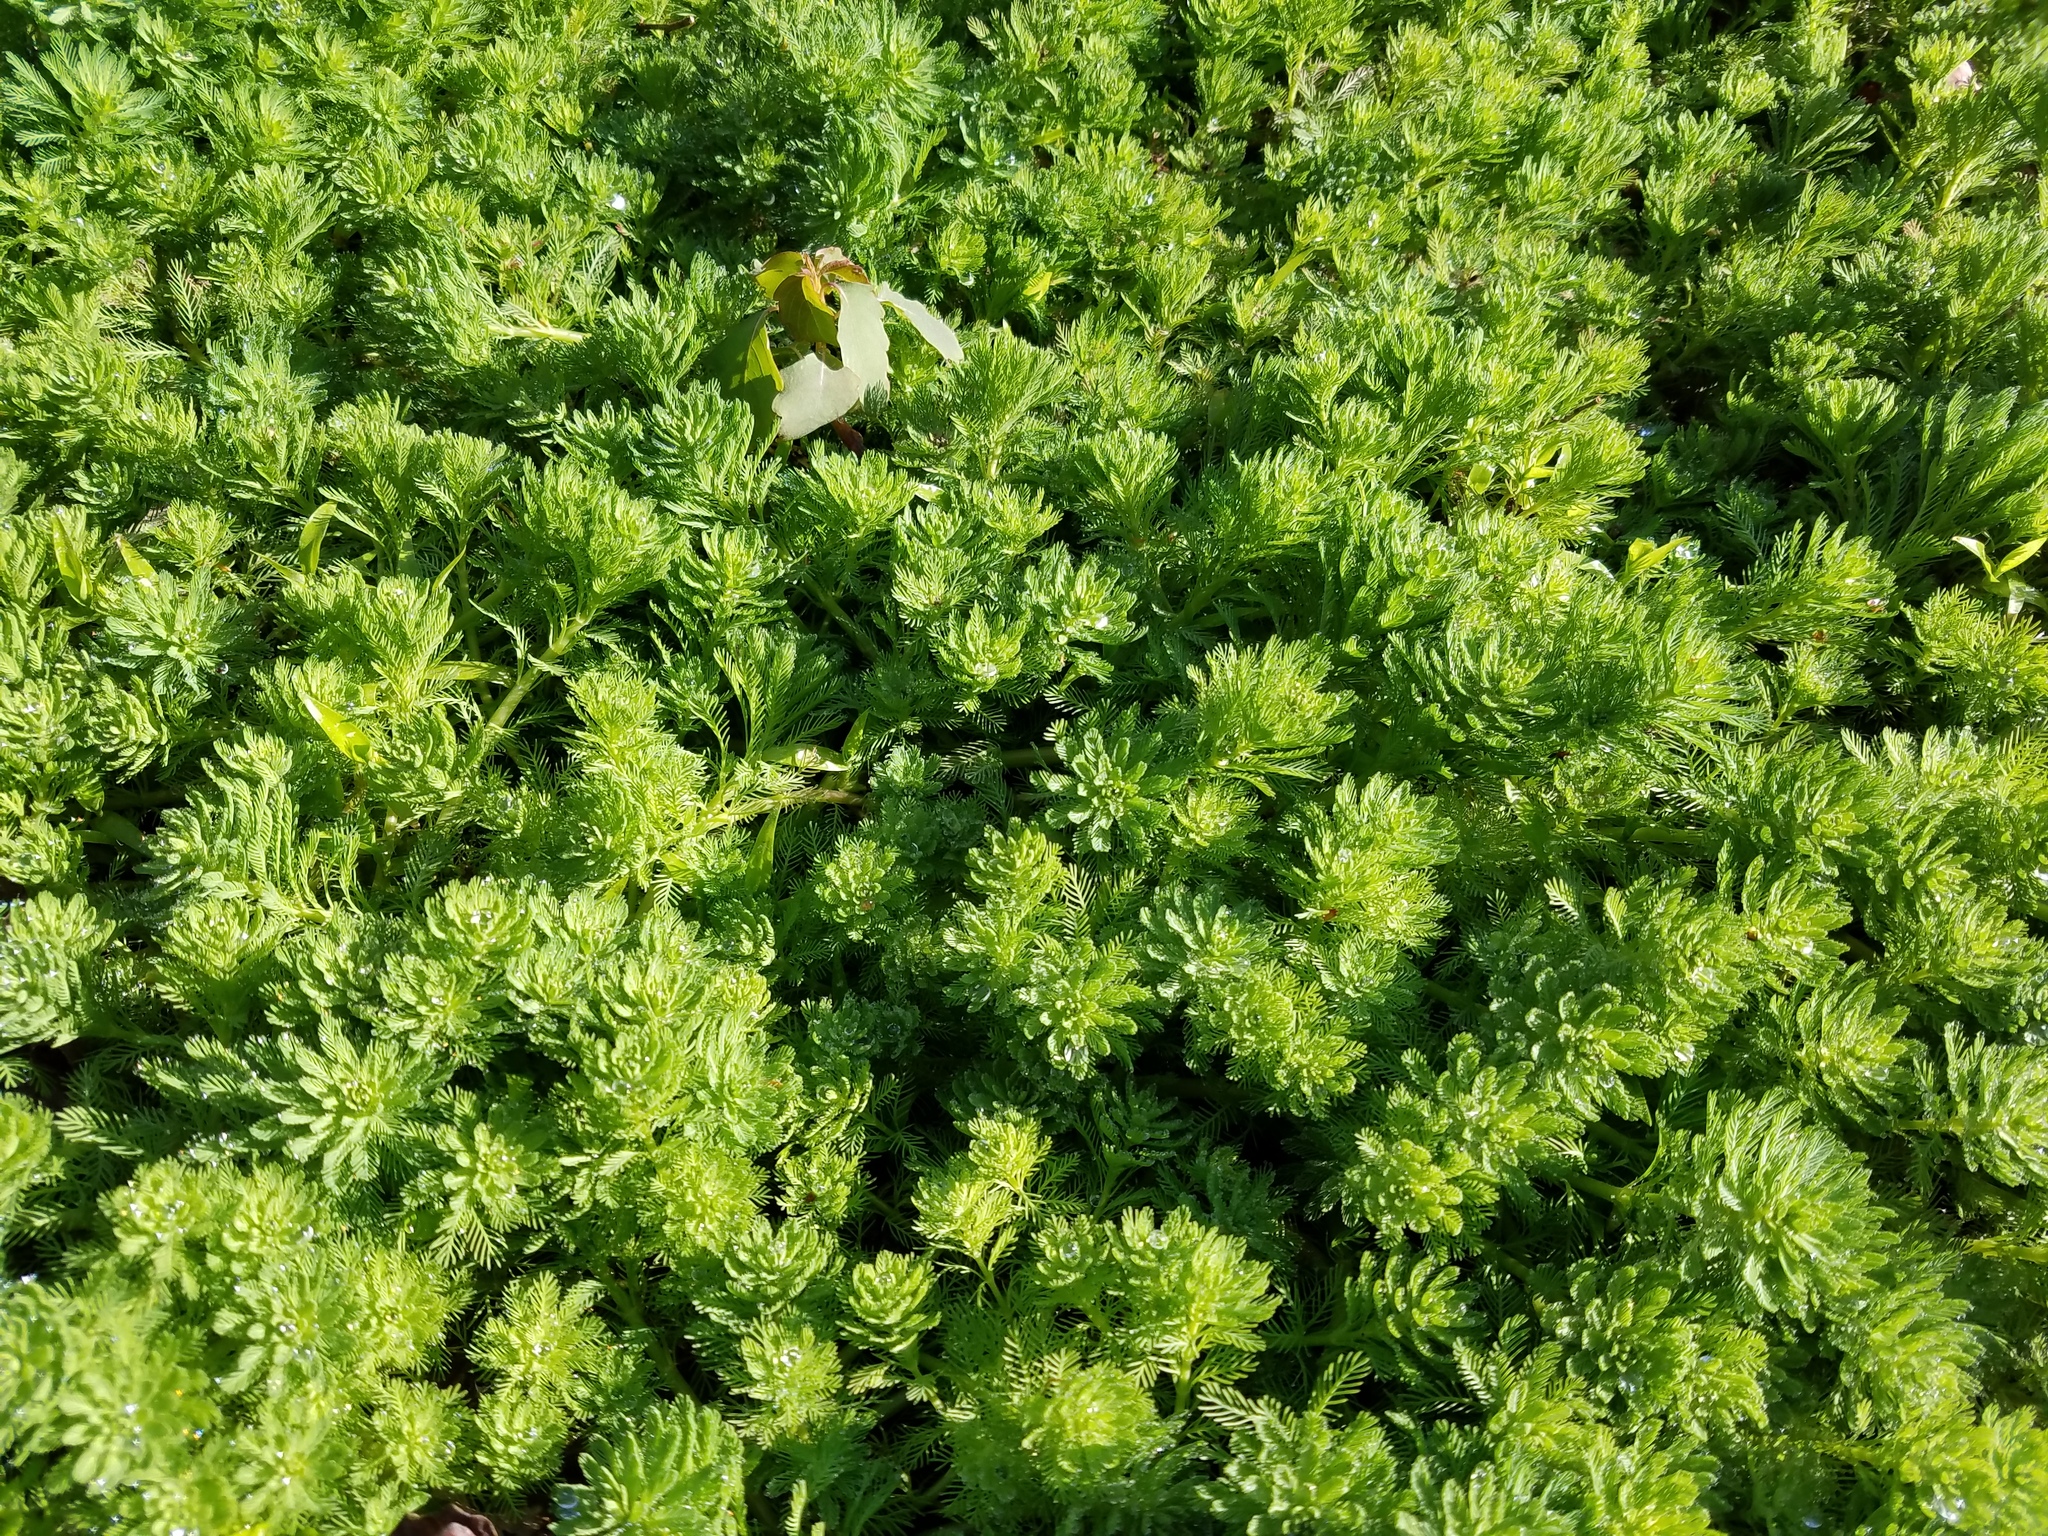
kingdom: Plantae
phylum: Tracheophyta
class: Magnoliopsida
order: Saxifragales
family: Haloragaceae
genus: Myriophyllum
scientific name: Myriophyllum aquaticum
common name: Parrot's feather
